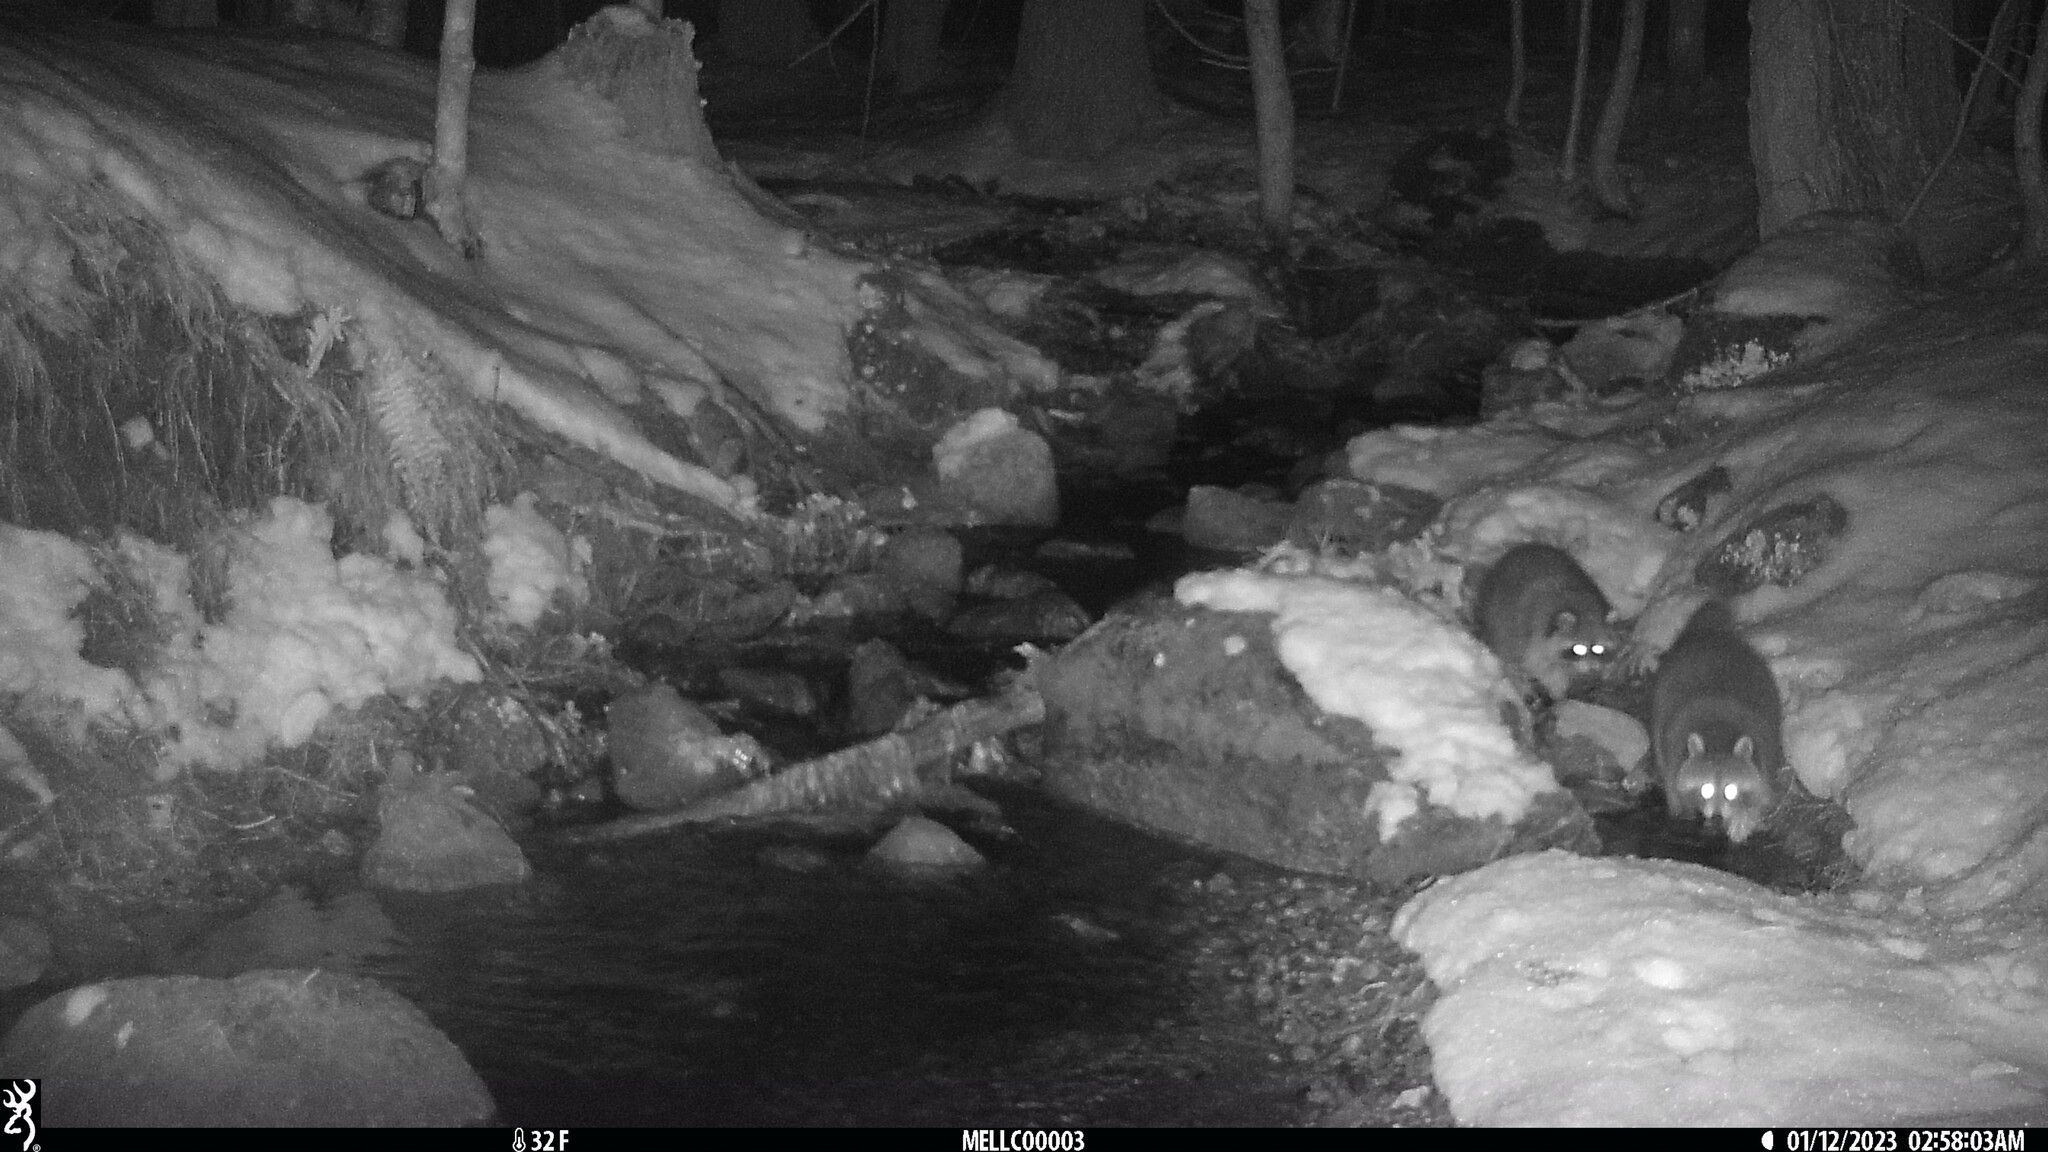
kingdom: Animalia
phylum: Chordata
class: Mammalia
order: Carnivora
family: Procyonidae
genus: Procyon
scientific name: Procyon lotor
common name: Raccoon
